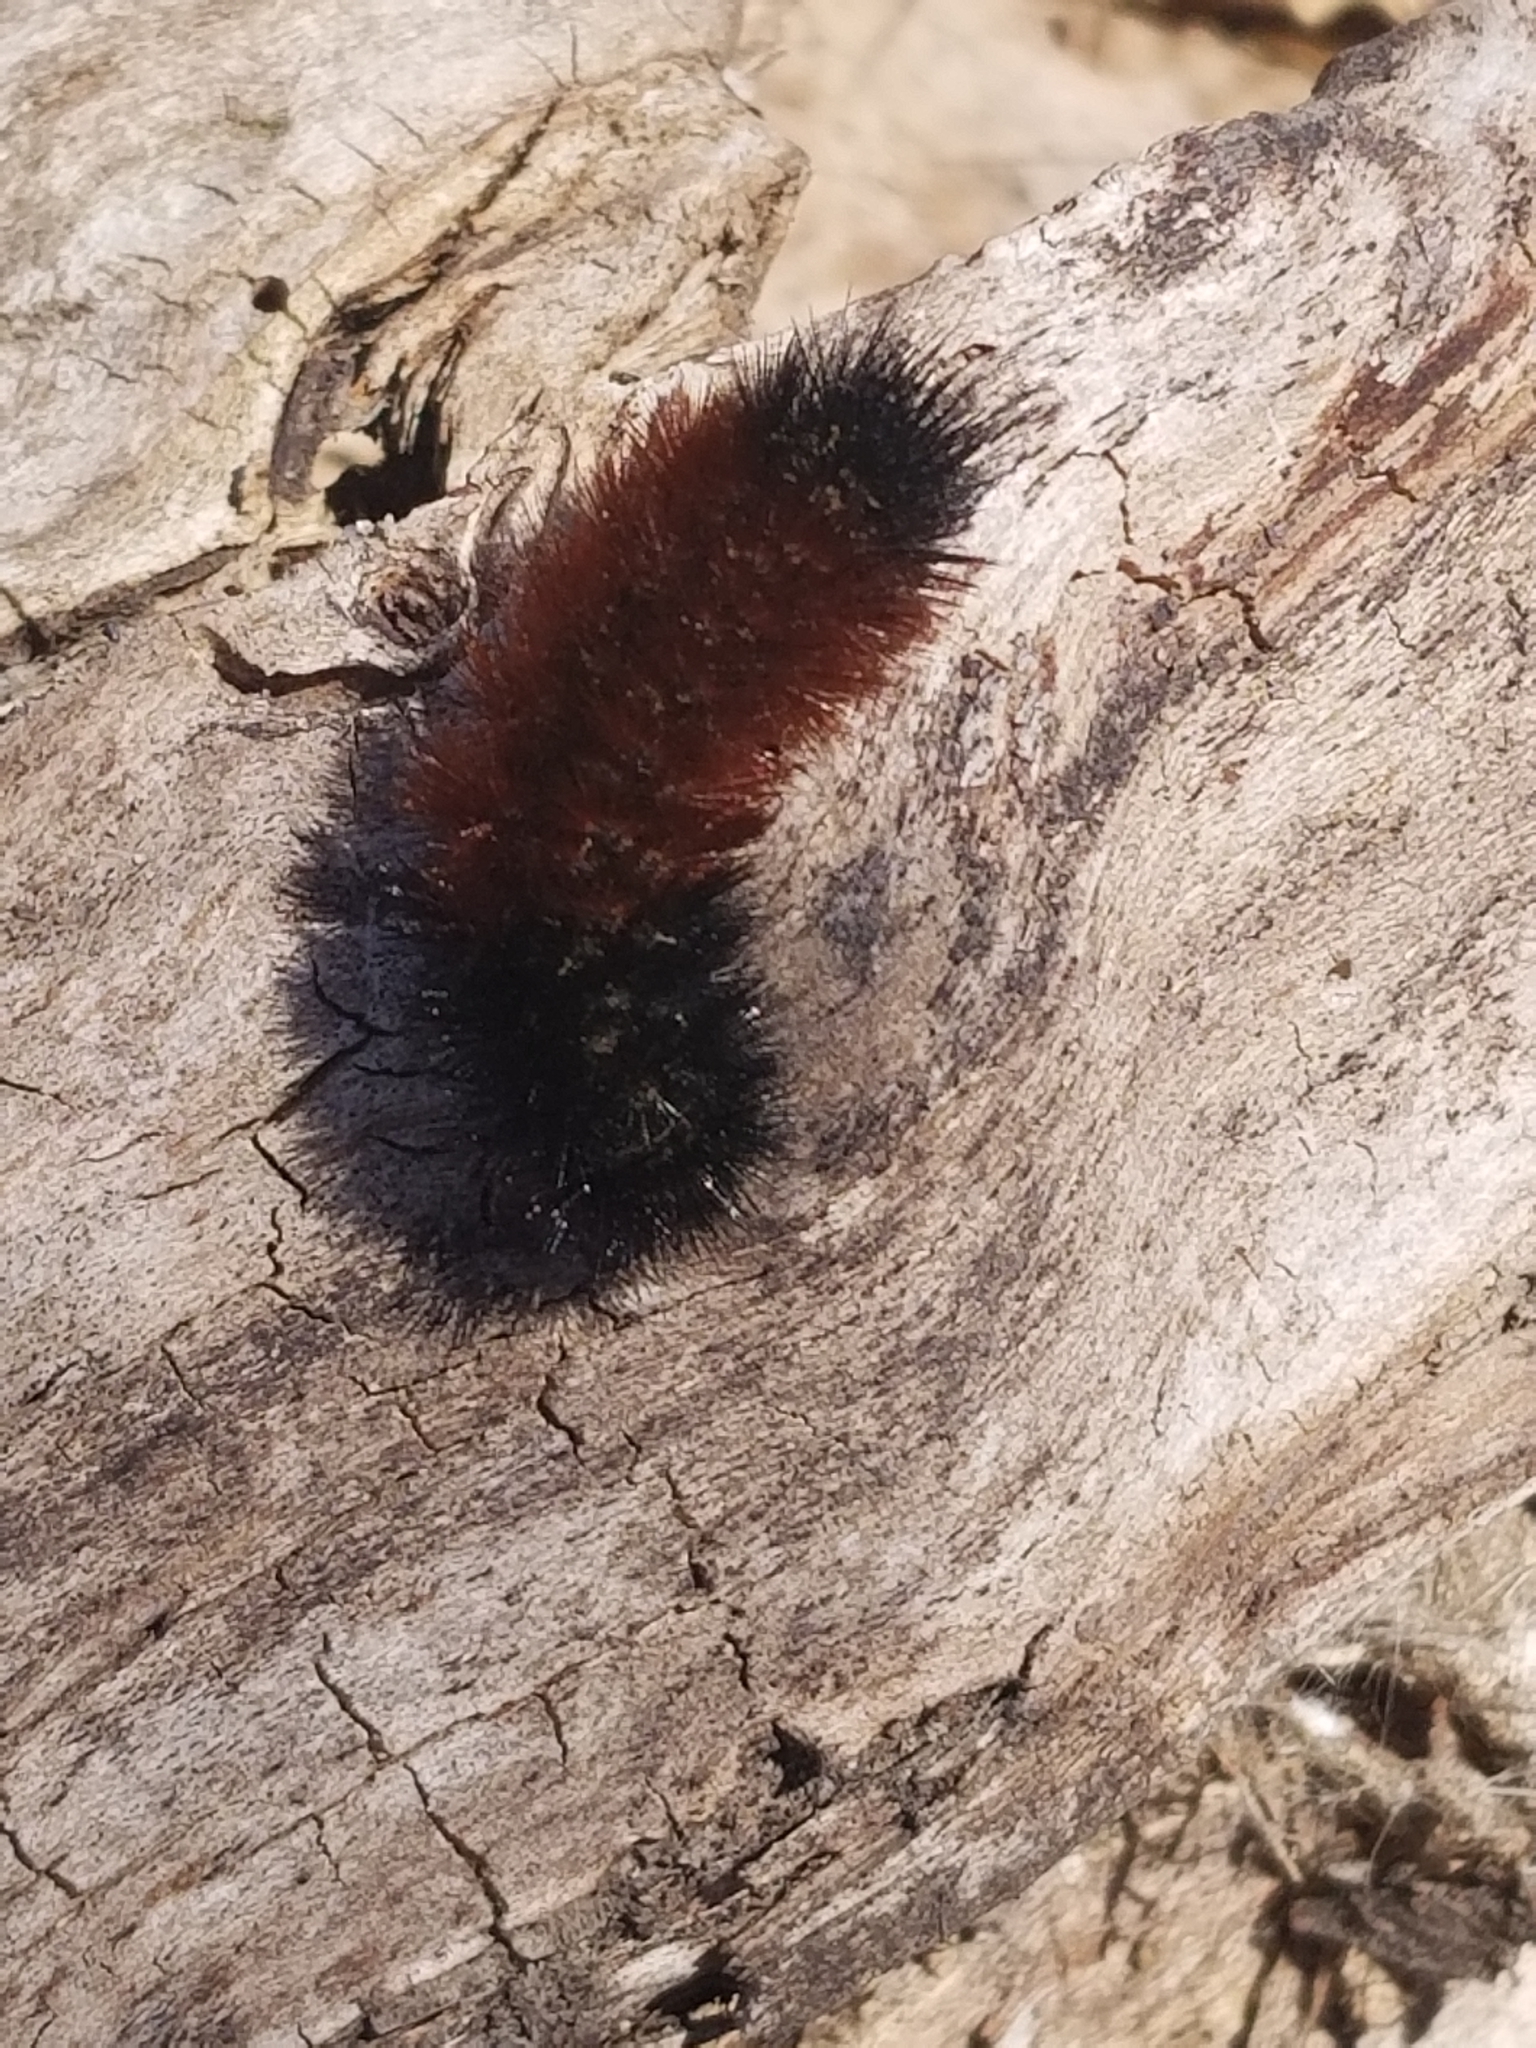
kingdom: Animalia
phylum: Arthropoda
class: Insecta
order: Lepidoptera
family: Erebidae
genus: Pyrrharctia
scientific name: Pyrrharctia isabella
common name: Isabella tiger moth
